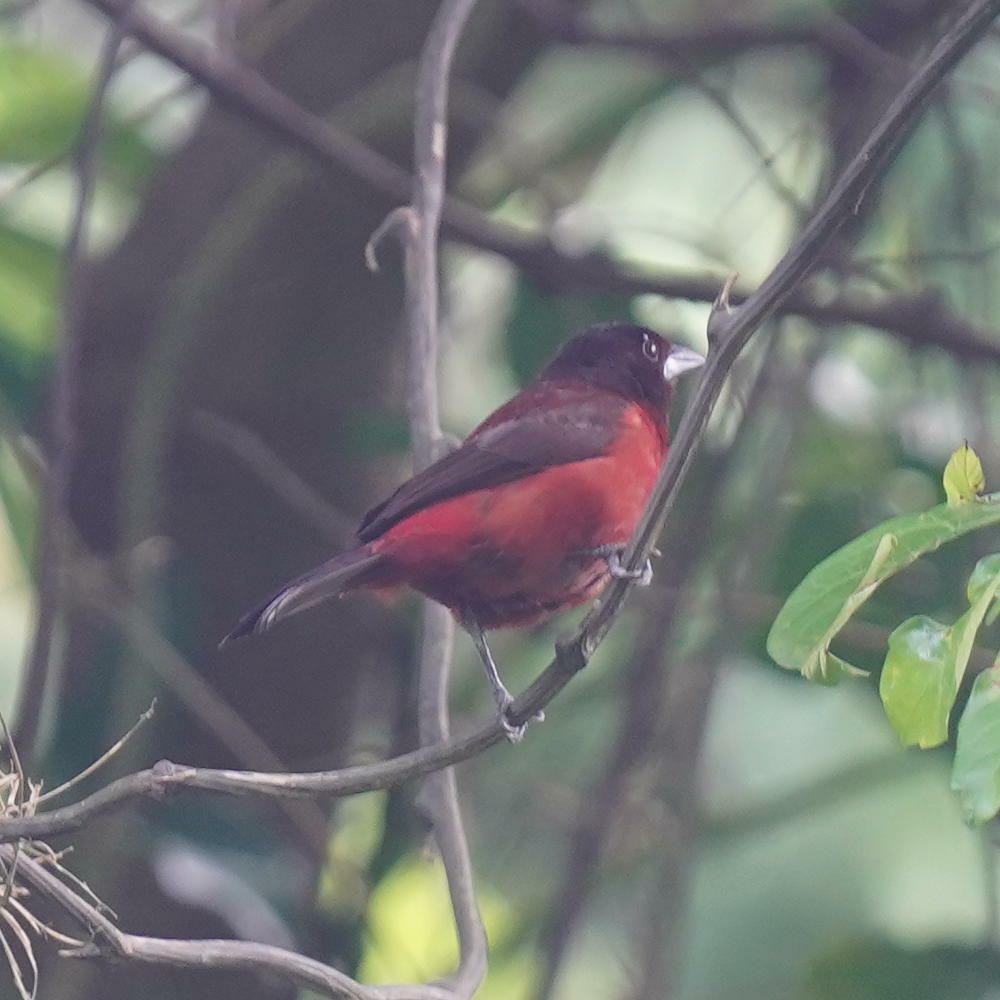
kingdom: Animalia
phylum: Chordata
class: Aves
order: Passeriformes
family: Thraupidae
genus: Ramphocelus
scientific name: Ramphocelus dimidiatus
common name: Crimson-backed tanager
